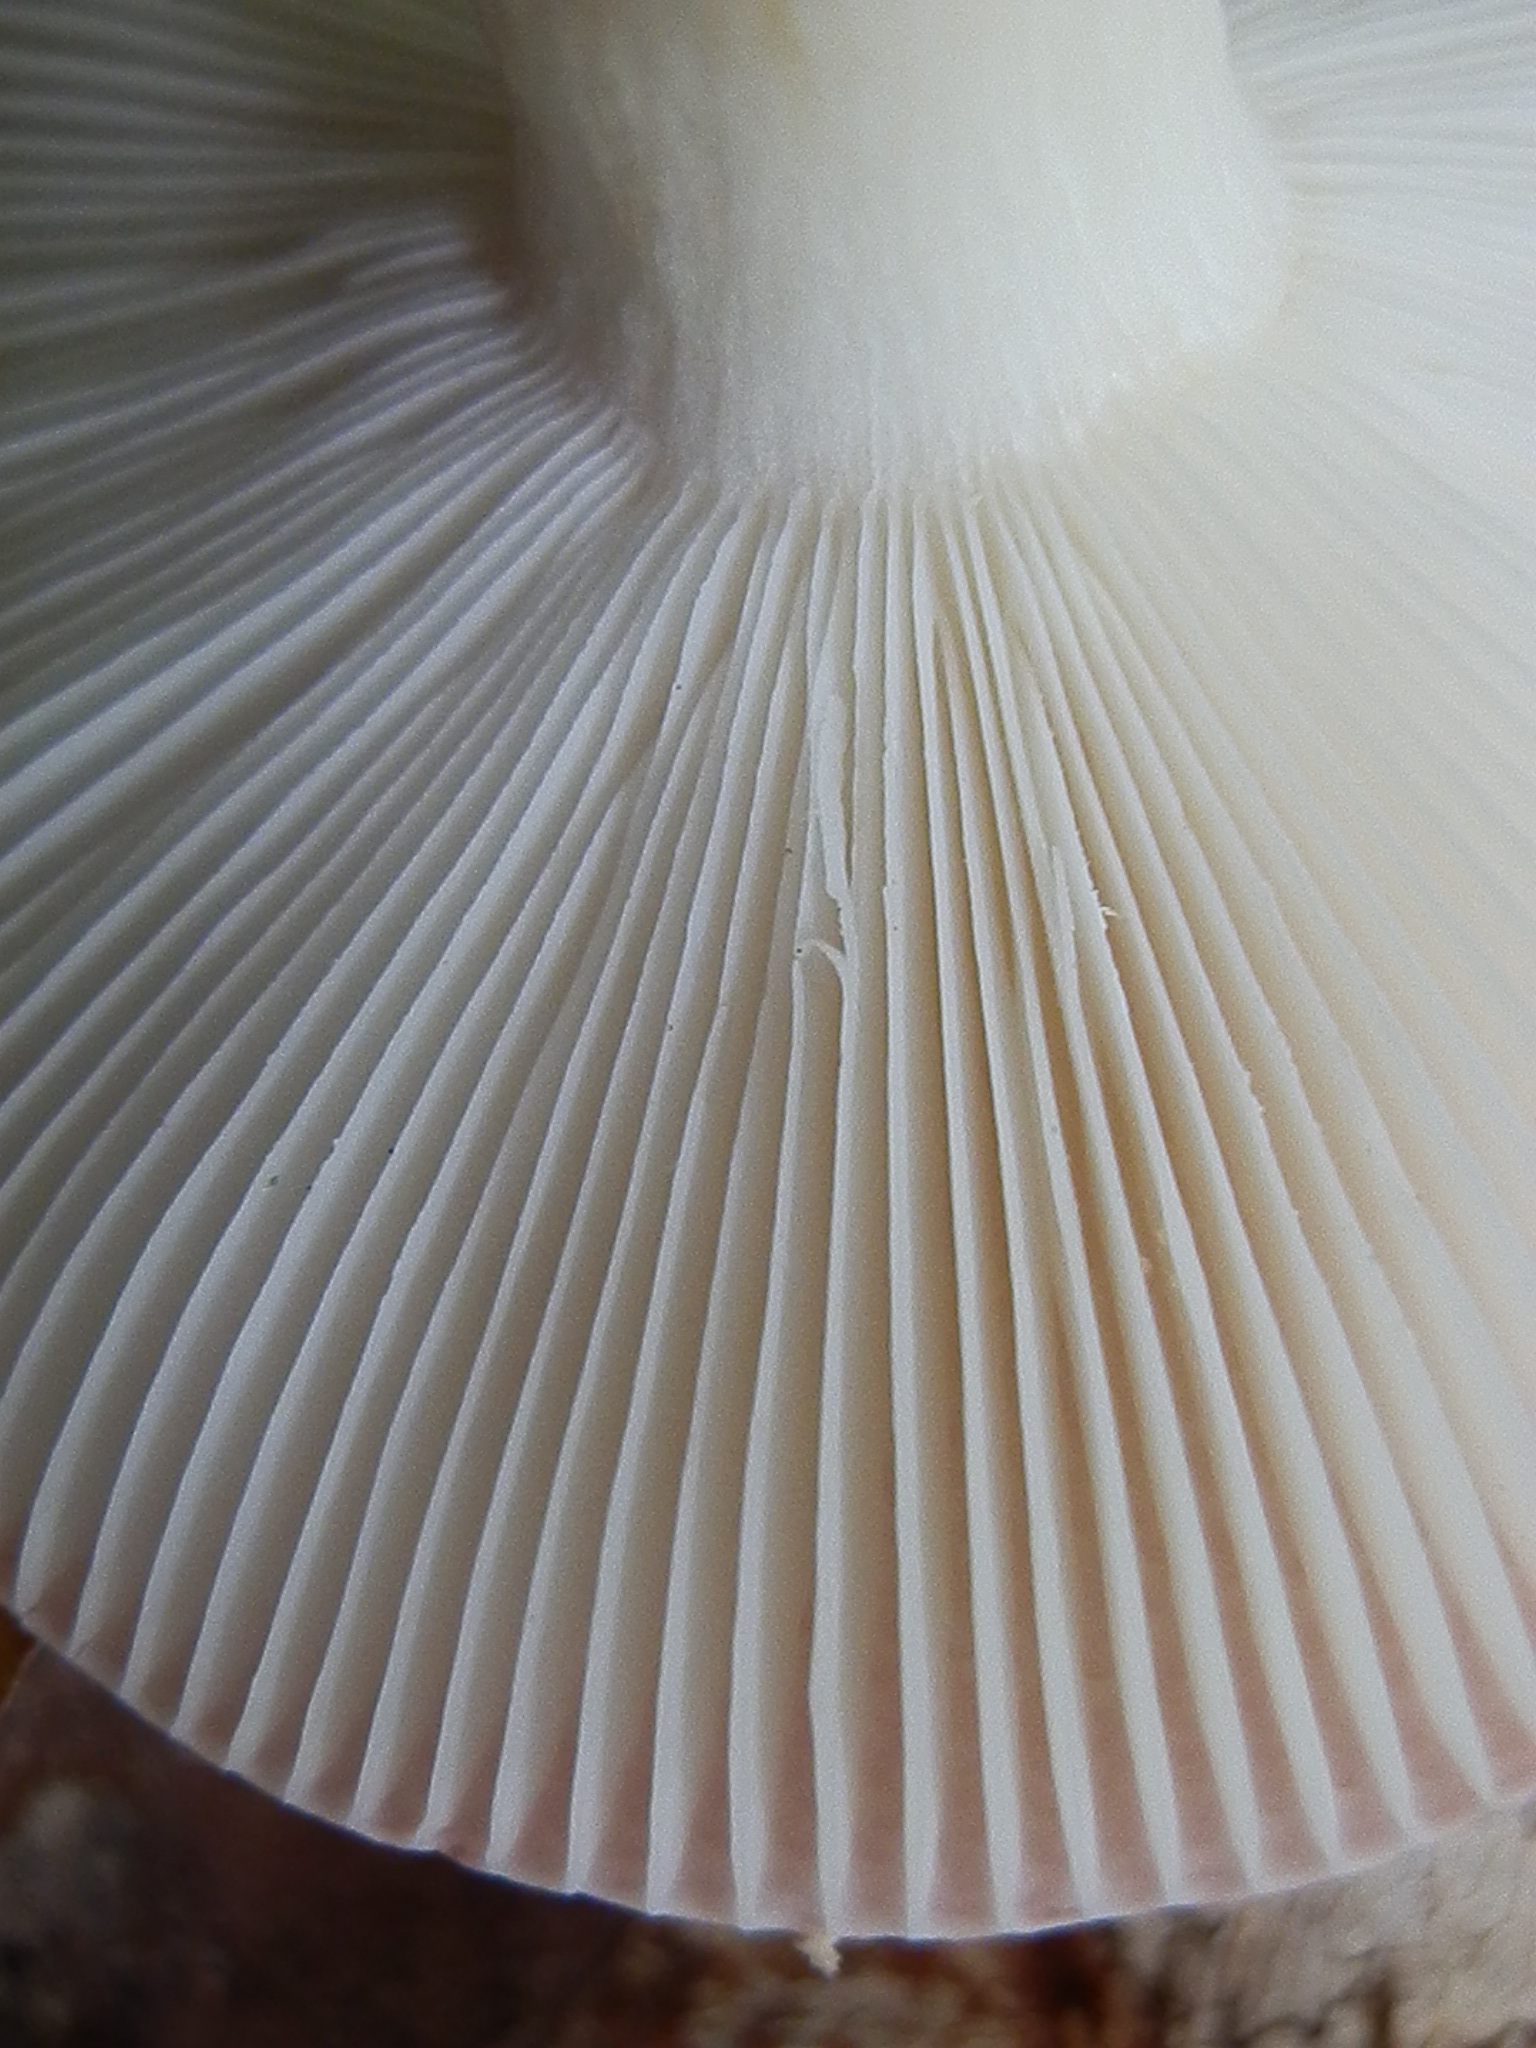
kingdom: Fungi
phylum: Basidiomycota
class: Agaricomycetes
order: Russulales
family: Russulaceae
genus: Russula
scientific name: Russula silvicola
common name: Emetic russula
